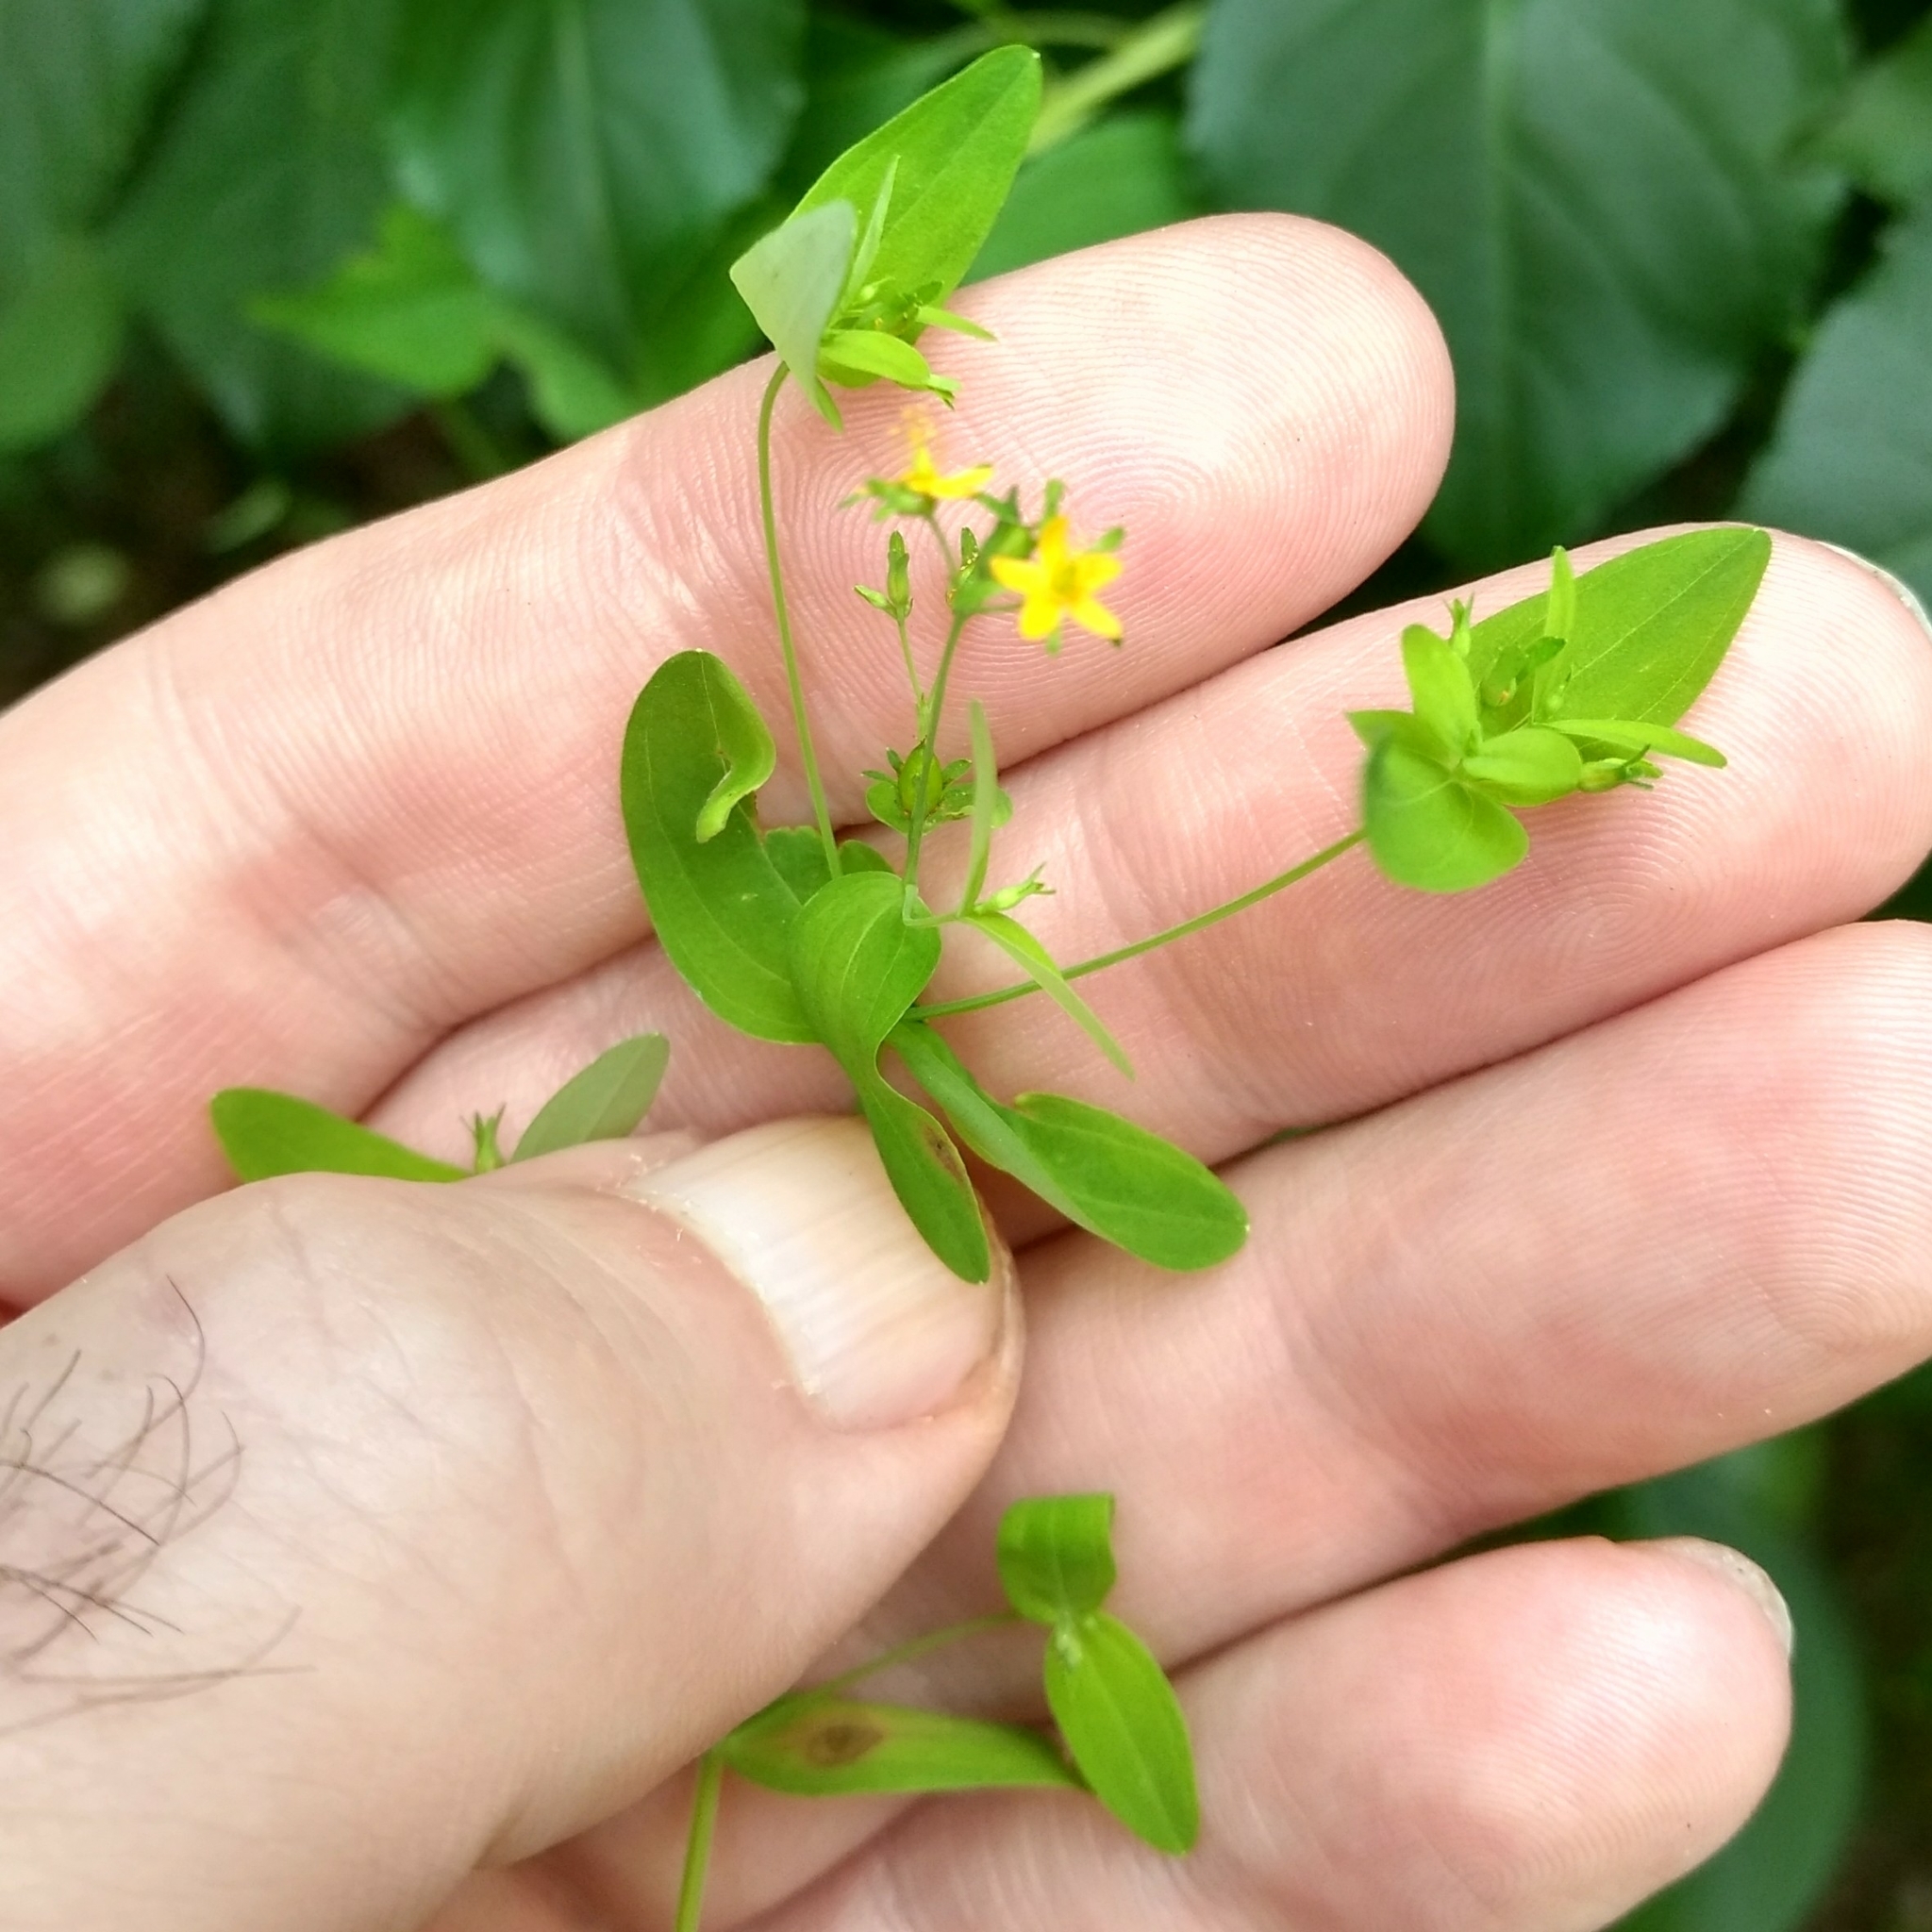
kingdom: Plantae
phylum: Tracheophyta
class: Magnoliopsida
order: Malpighiales
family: Hypericaceae
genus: Hypericum
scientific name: Hypericum mutilum
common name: Dwarf st. john's-wort
